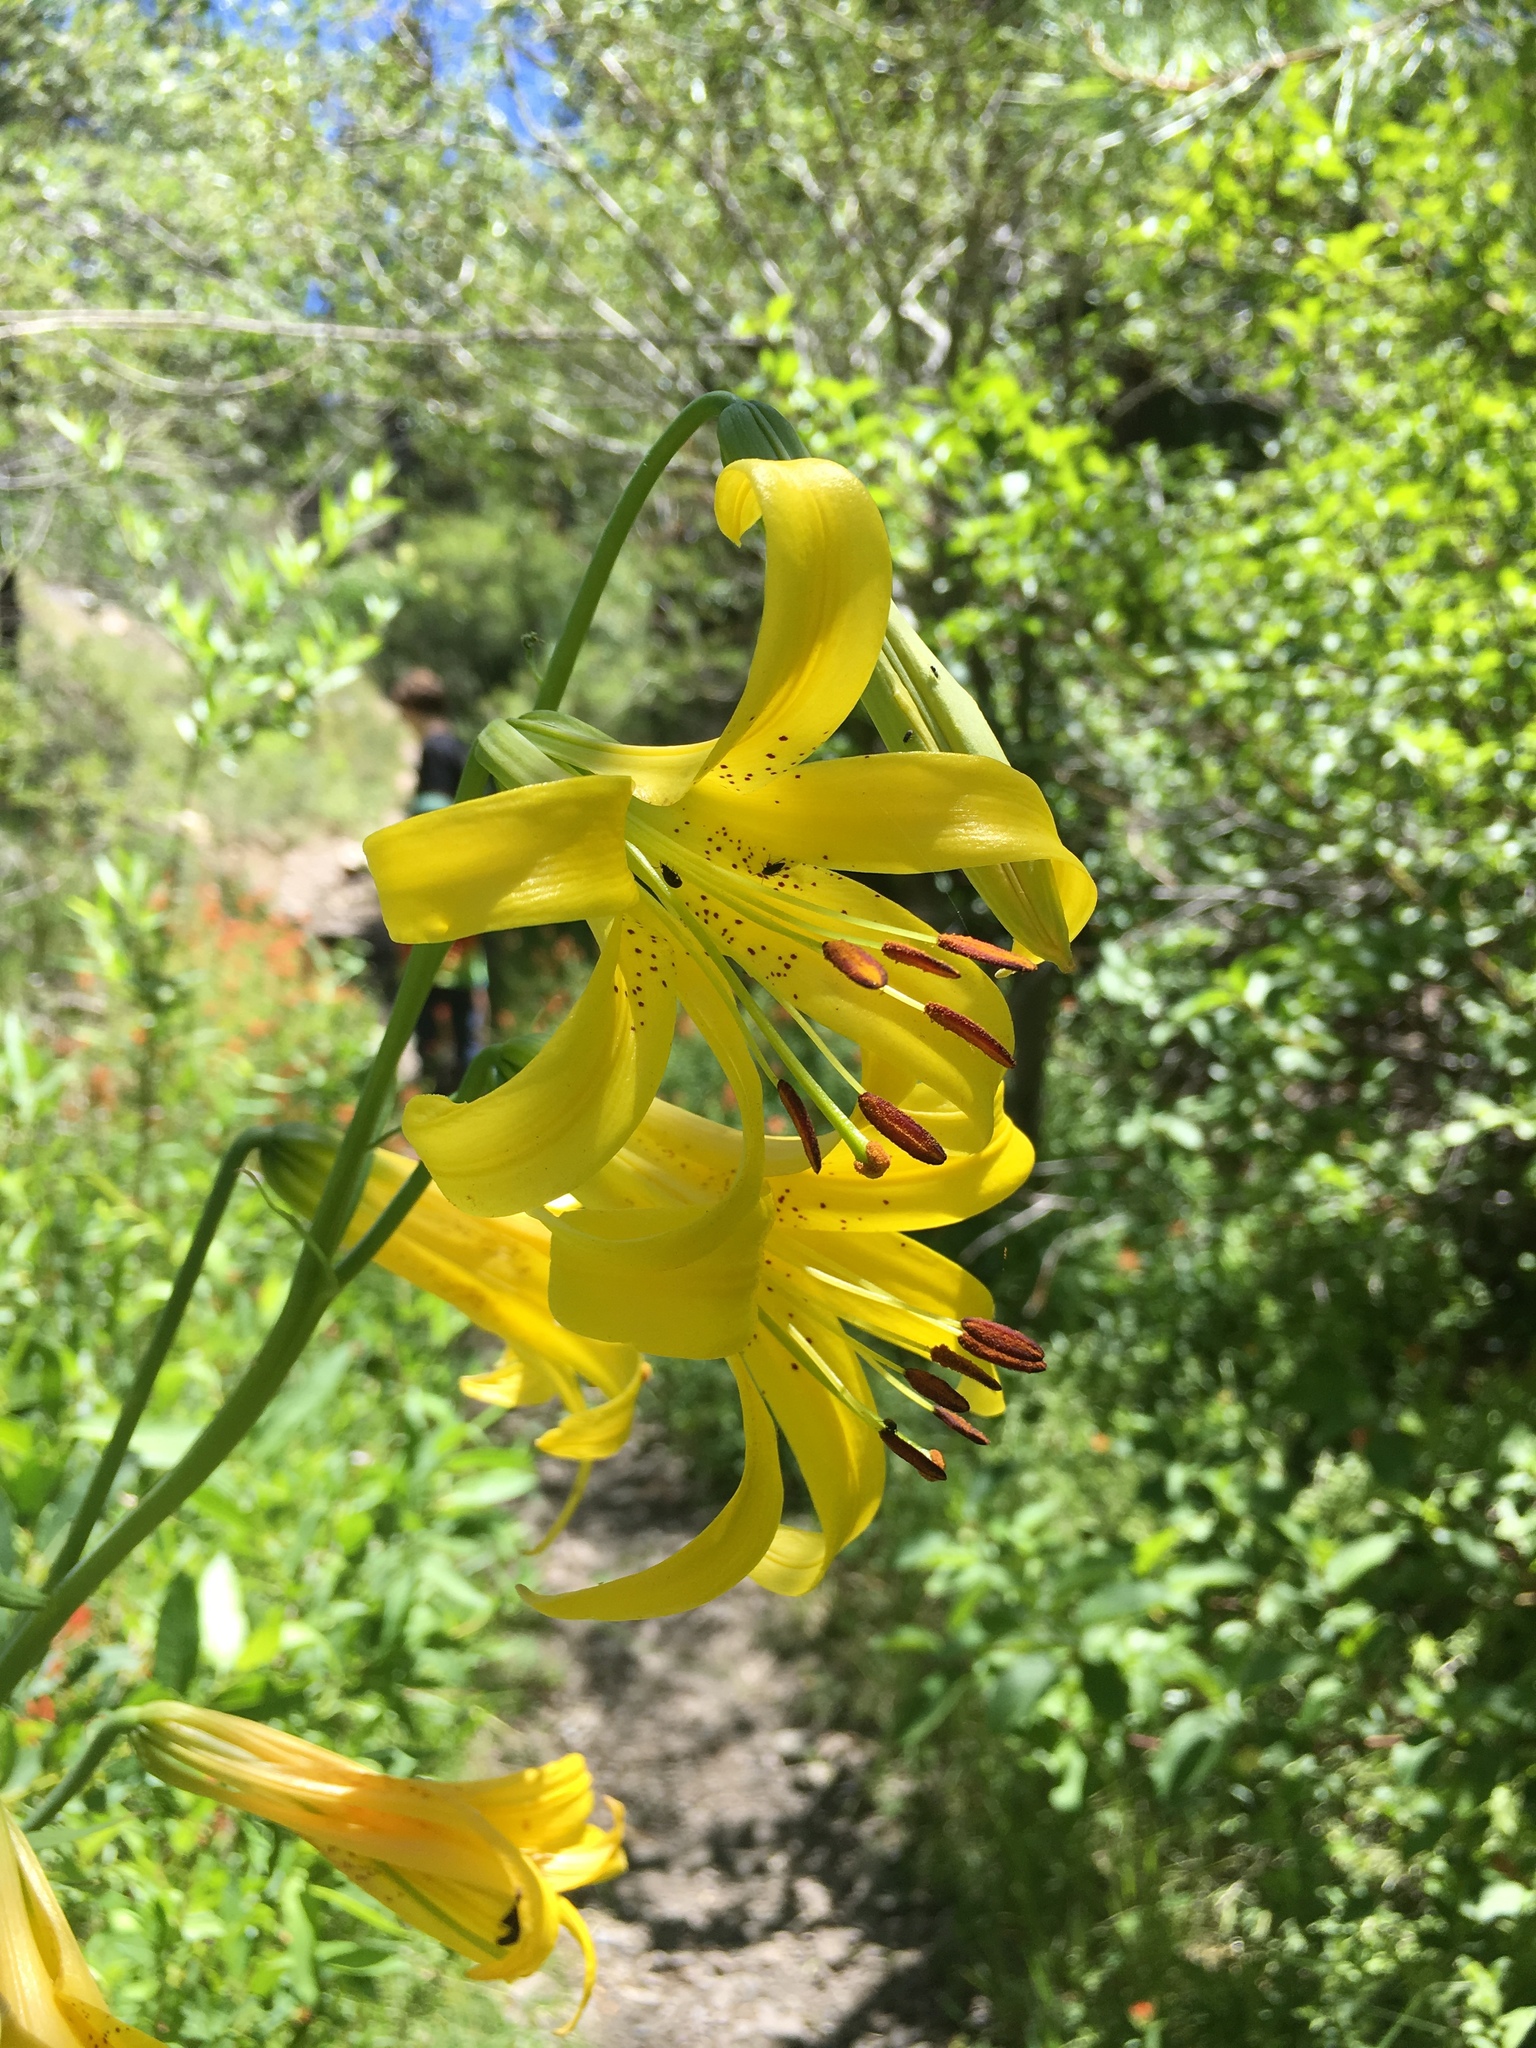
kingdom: Plantae
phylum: Tracheophyta
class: Liliopsida
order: Liliales
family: Liliaceae
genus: Lilium
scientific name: Lilium parryi
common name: Lemon lily
